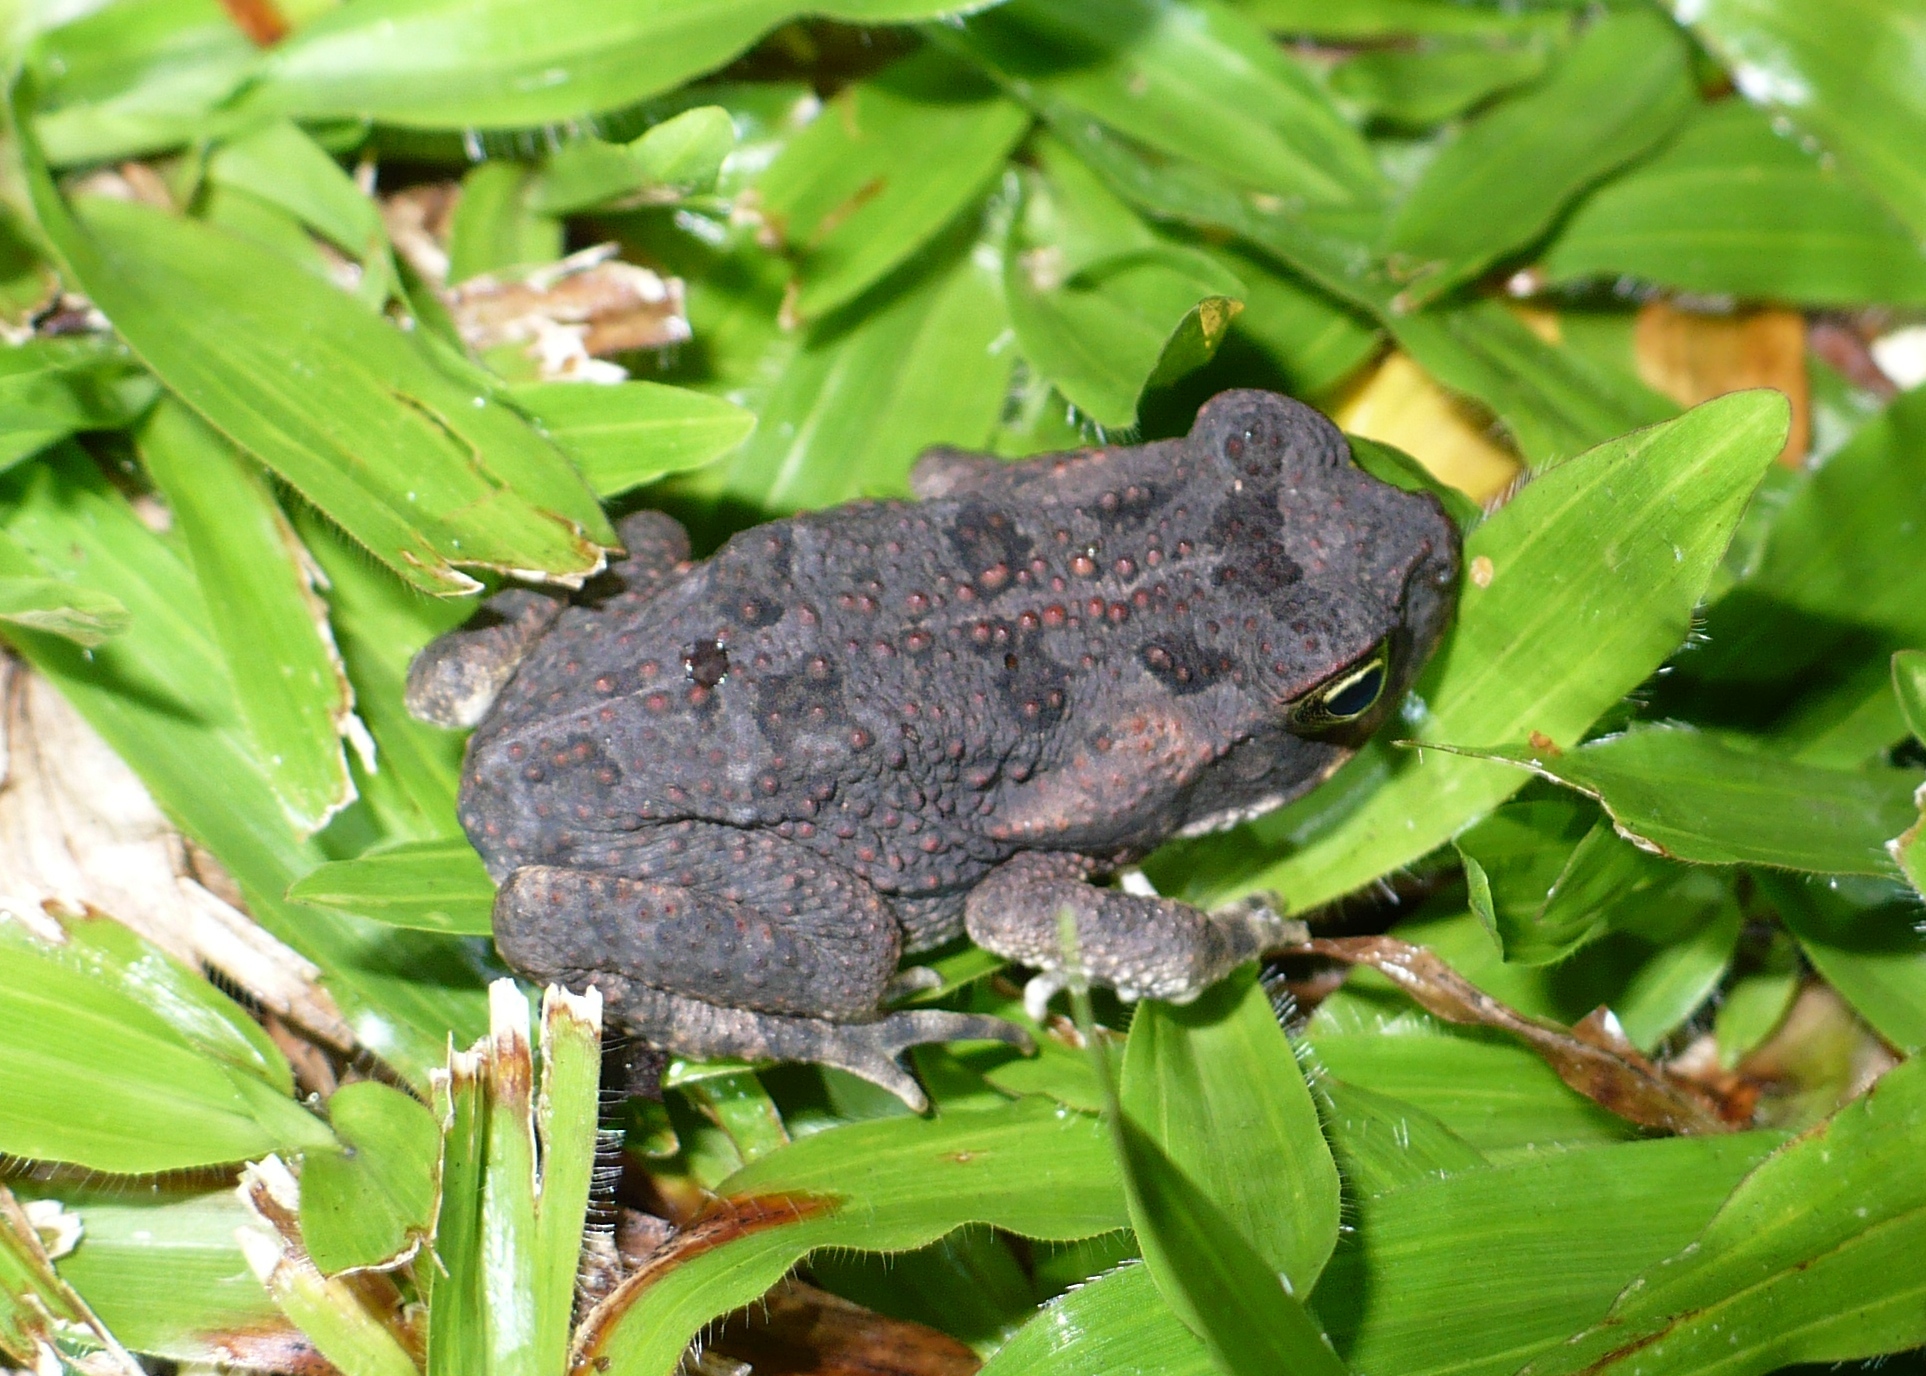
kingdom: Animalia
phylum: Chordata
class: Amphibia
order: Anura
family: Bufonidae
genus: Rhinella
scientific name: Rhinella horribilis
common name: Mesoamerican cane toad
